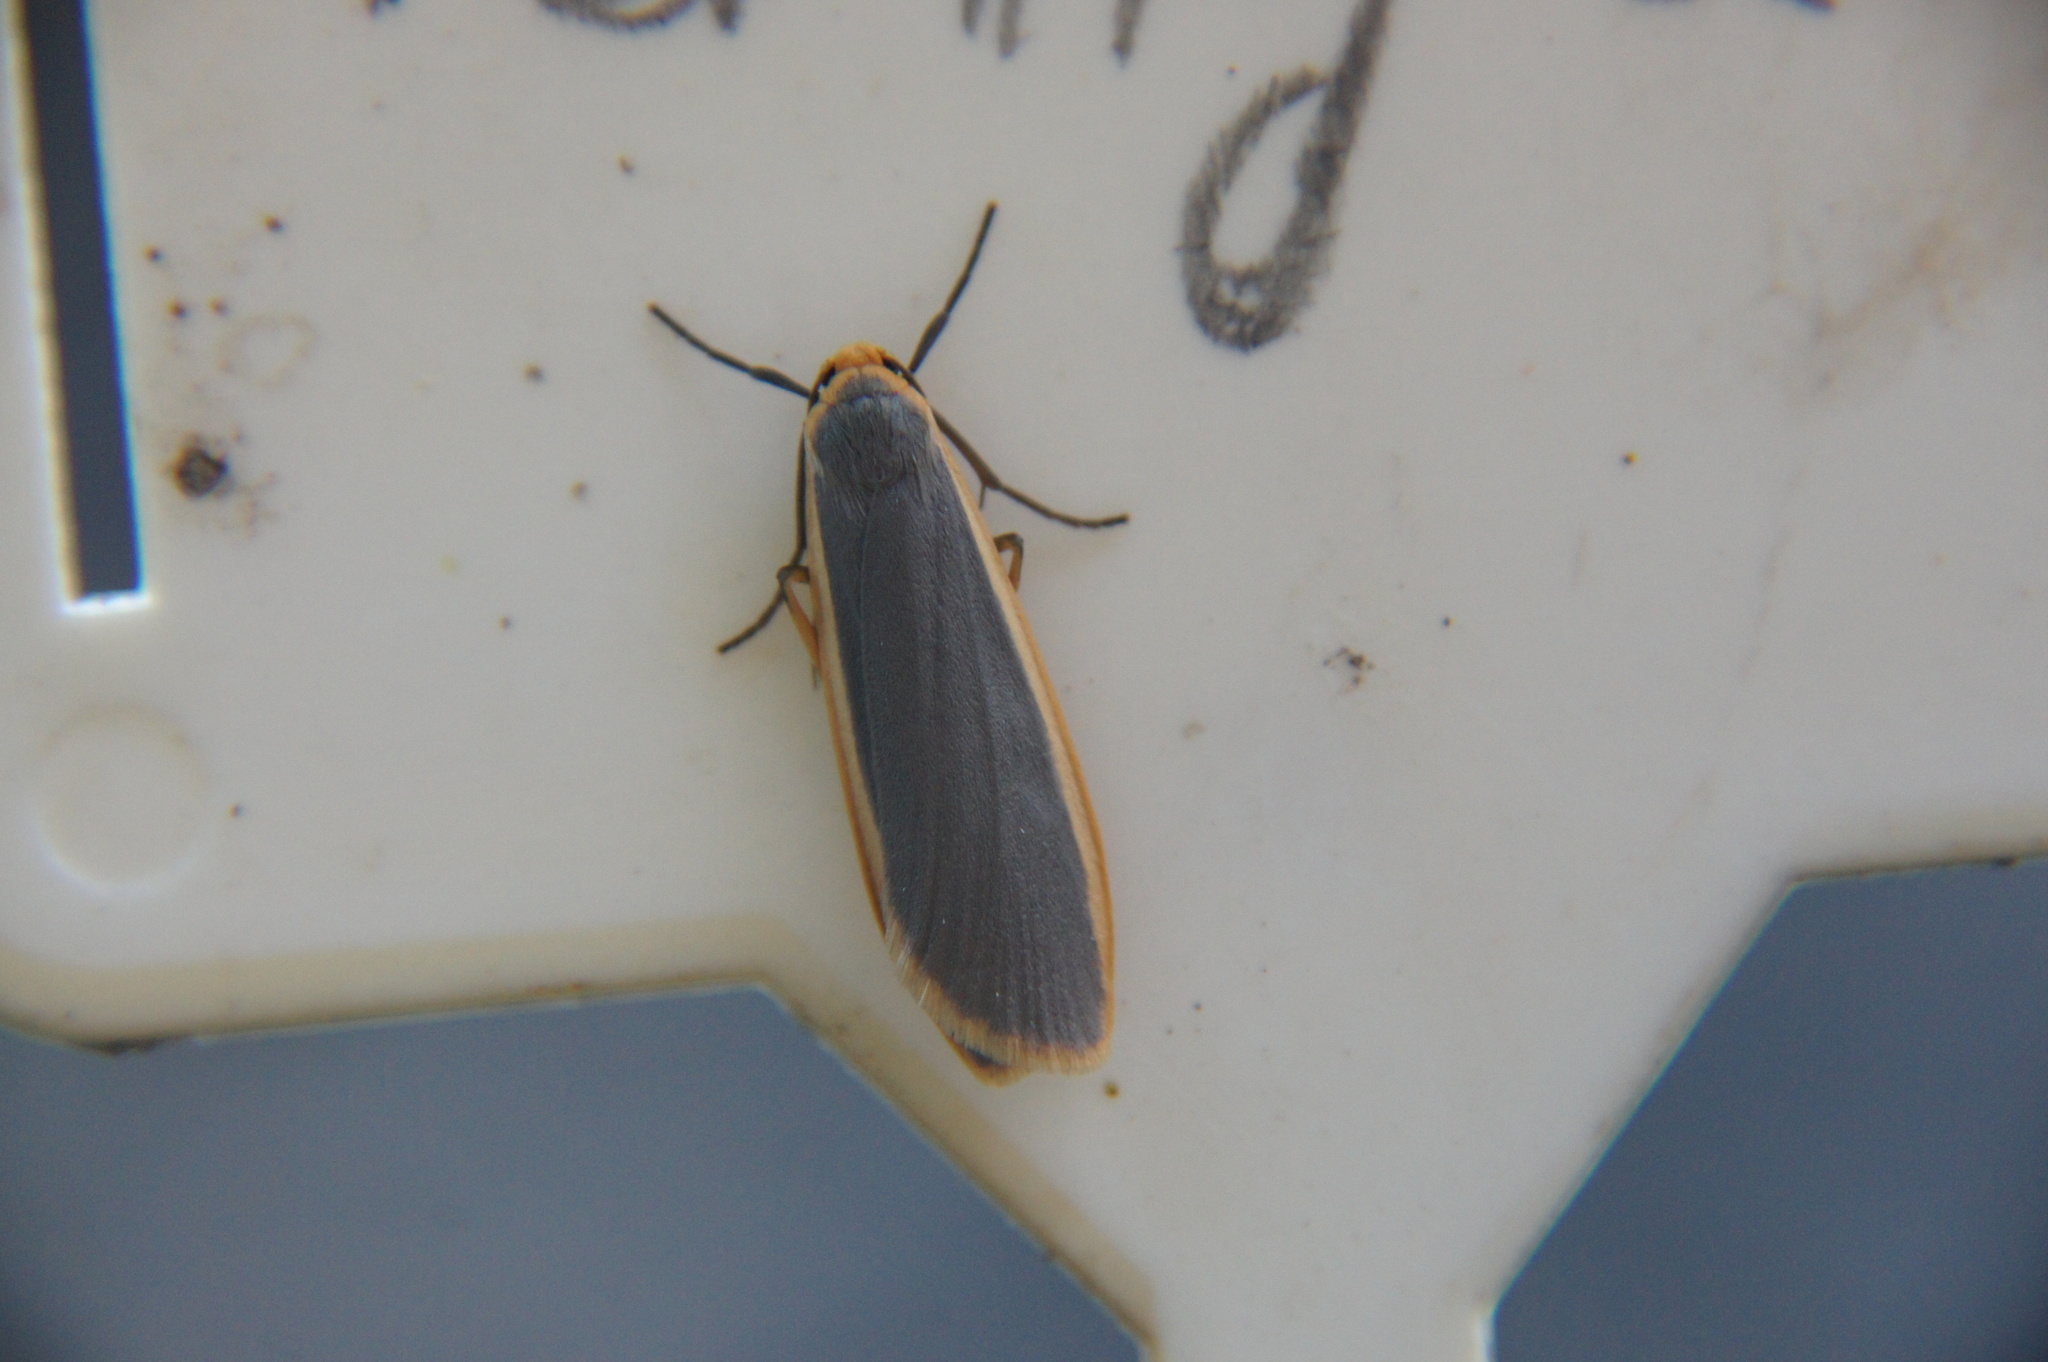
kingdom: Animalia
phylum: Arthropoda
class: Insecta
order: Lepidoptera
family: Erebidae
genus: Nyea
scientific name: Nyea lurideola
